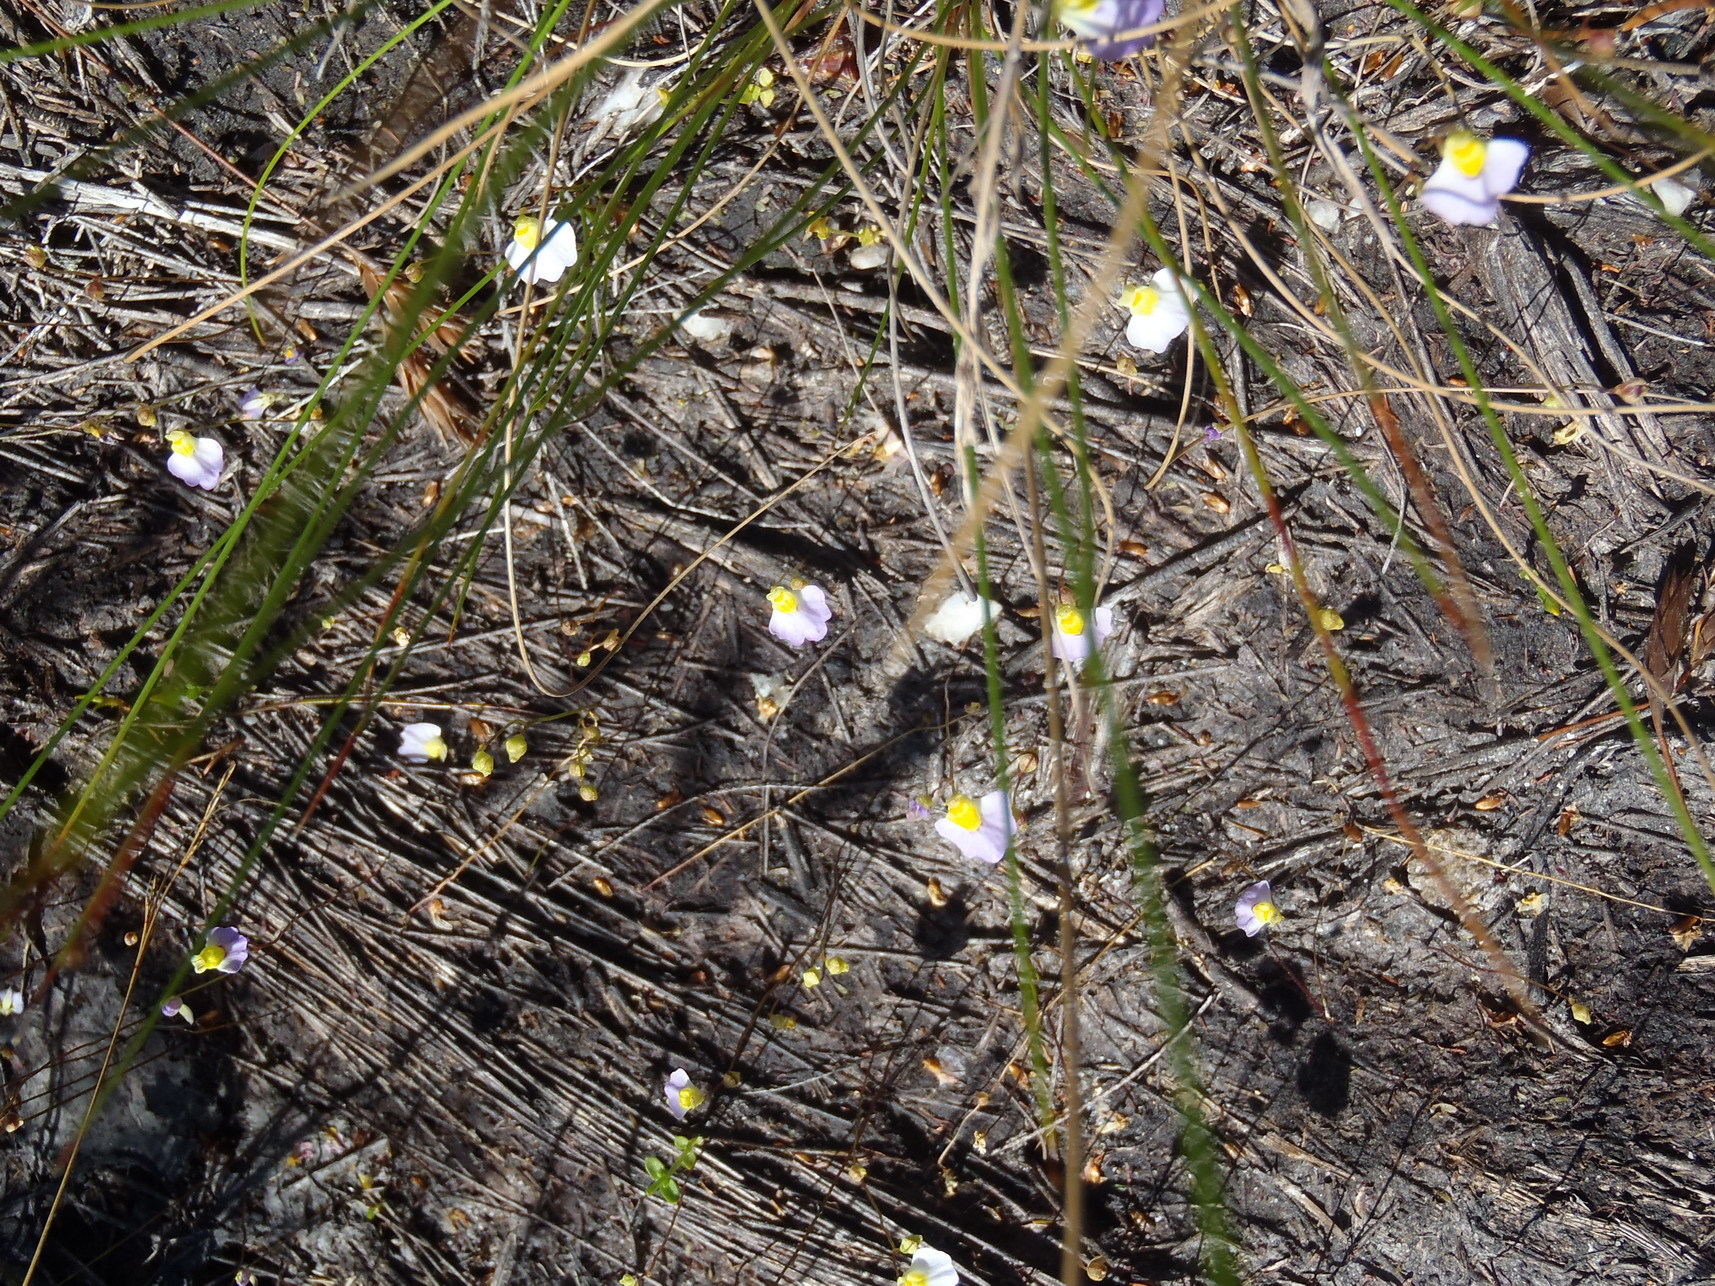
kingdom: Plantae
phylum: Tracheophyta
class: Magnoliopsida
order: Lamiales
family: Lentibulariaceae
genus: Utricularia
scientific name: Utricularia bisquamata
